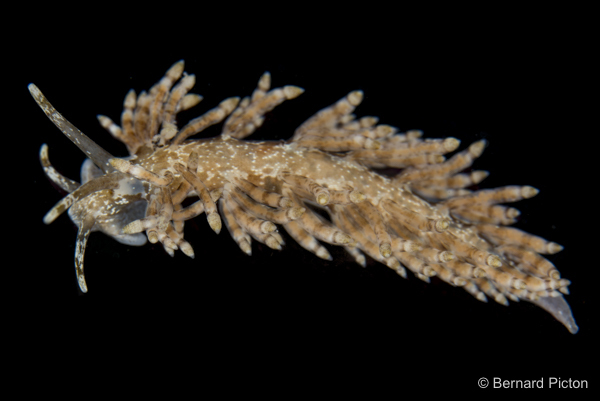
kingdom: Animalia
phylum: Mollusca
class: Gastropoda
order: Nudibranchia
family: Eubranchidae
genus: Eubranchus
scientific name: Eubranchus vittatus
